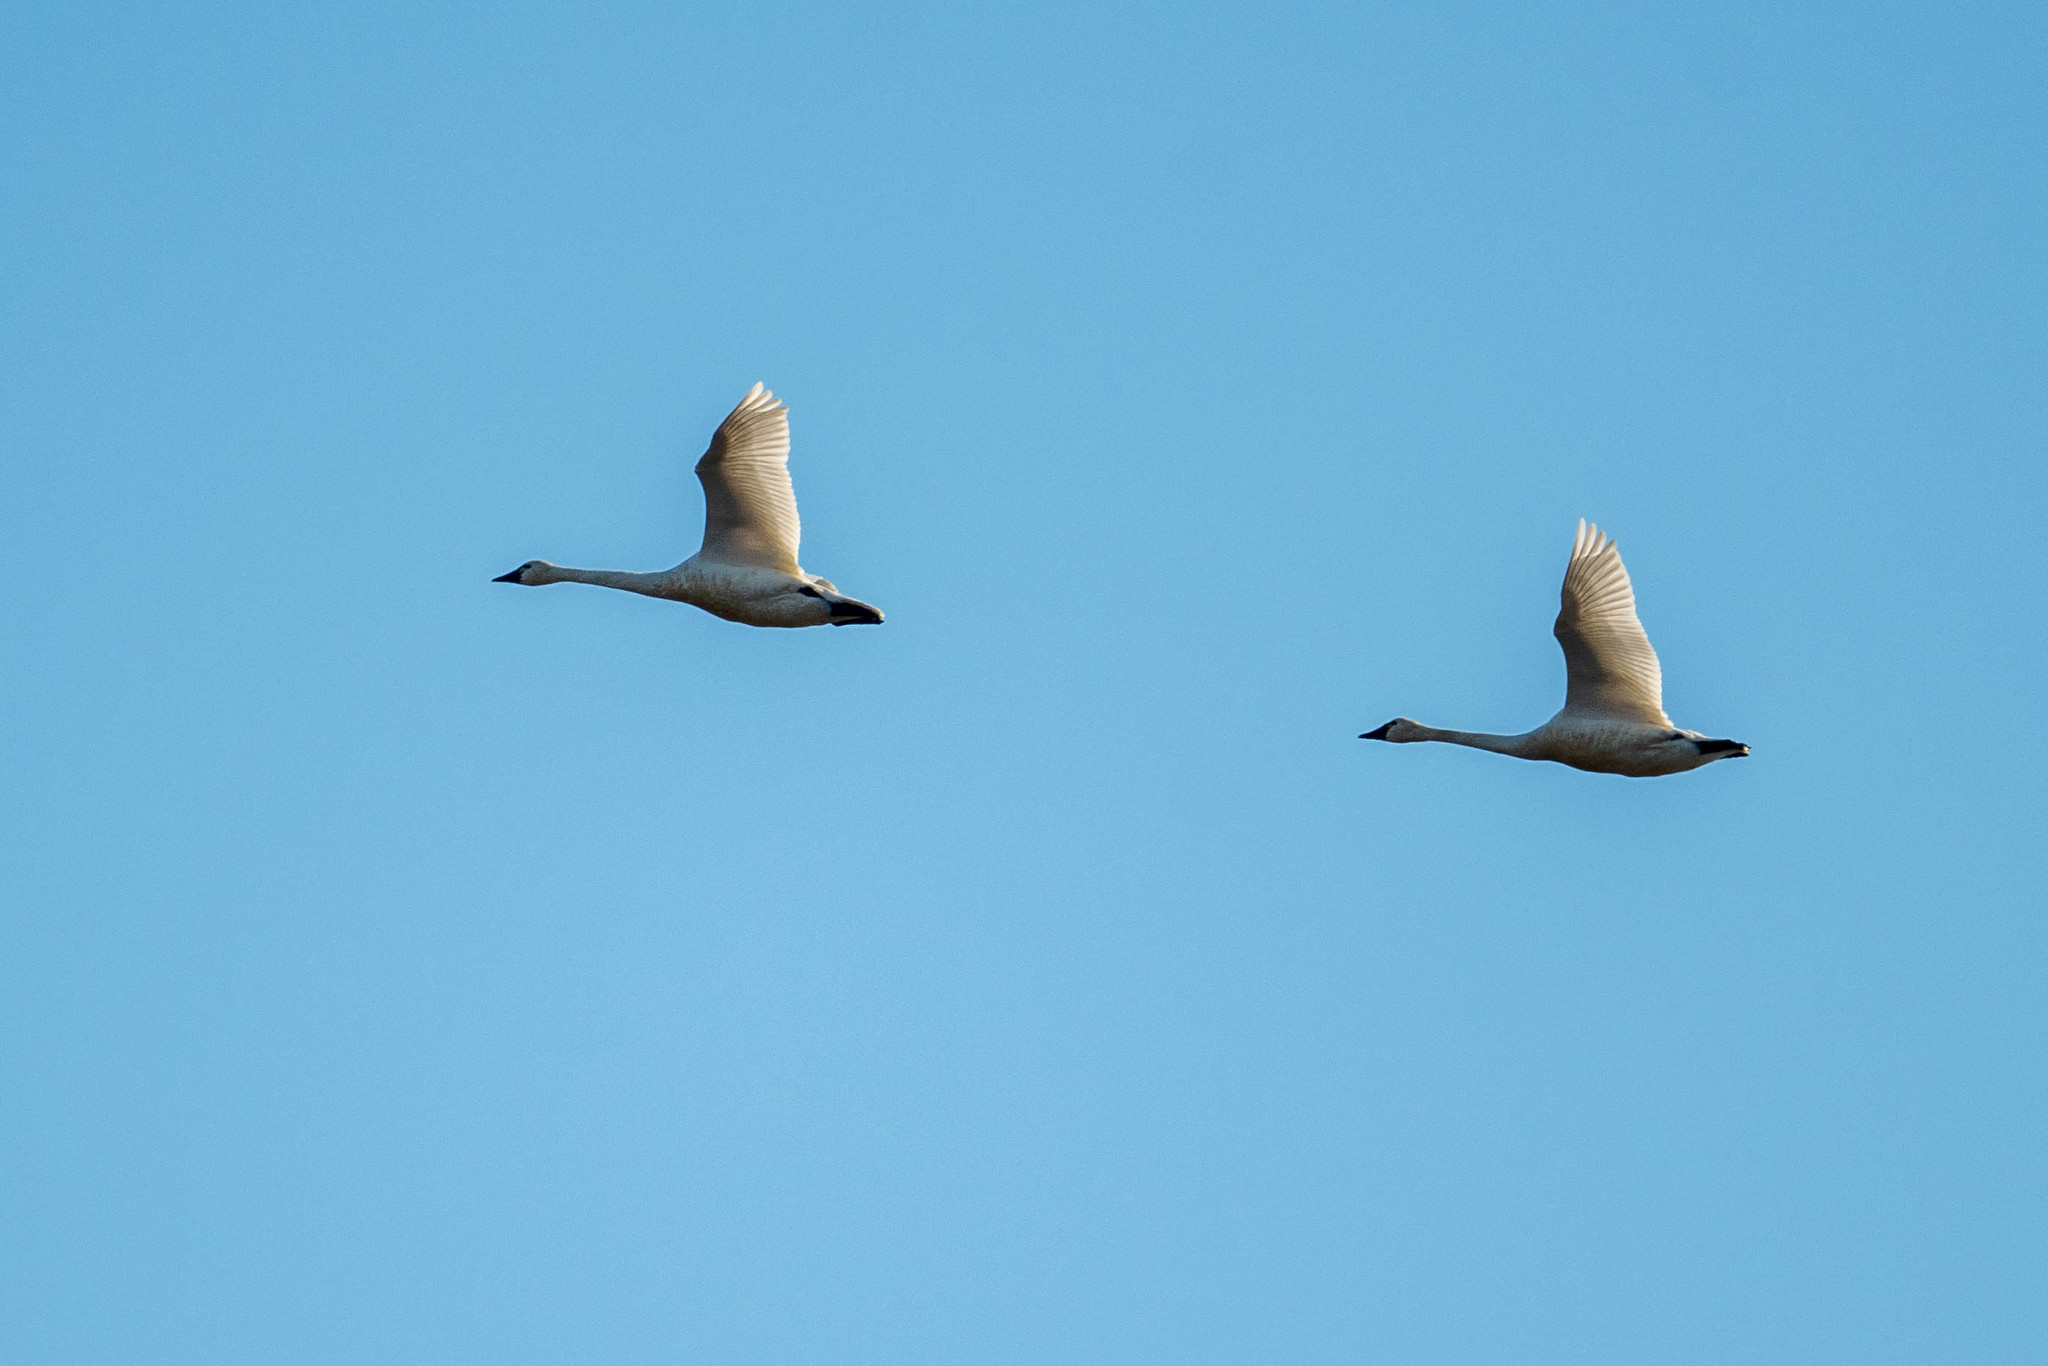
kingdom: Animalia
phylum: Chordata
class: Aves
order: Anseriformes
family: Anatidae
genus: Cygnus
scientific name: Cygnus columbianus
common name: Tundra swan
